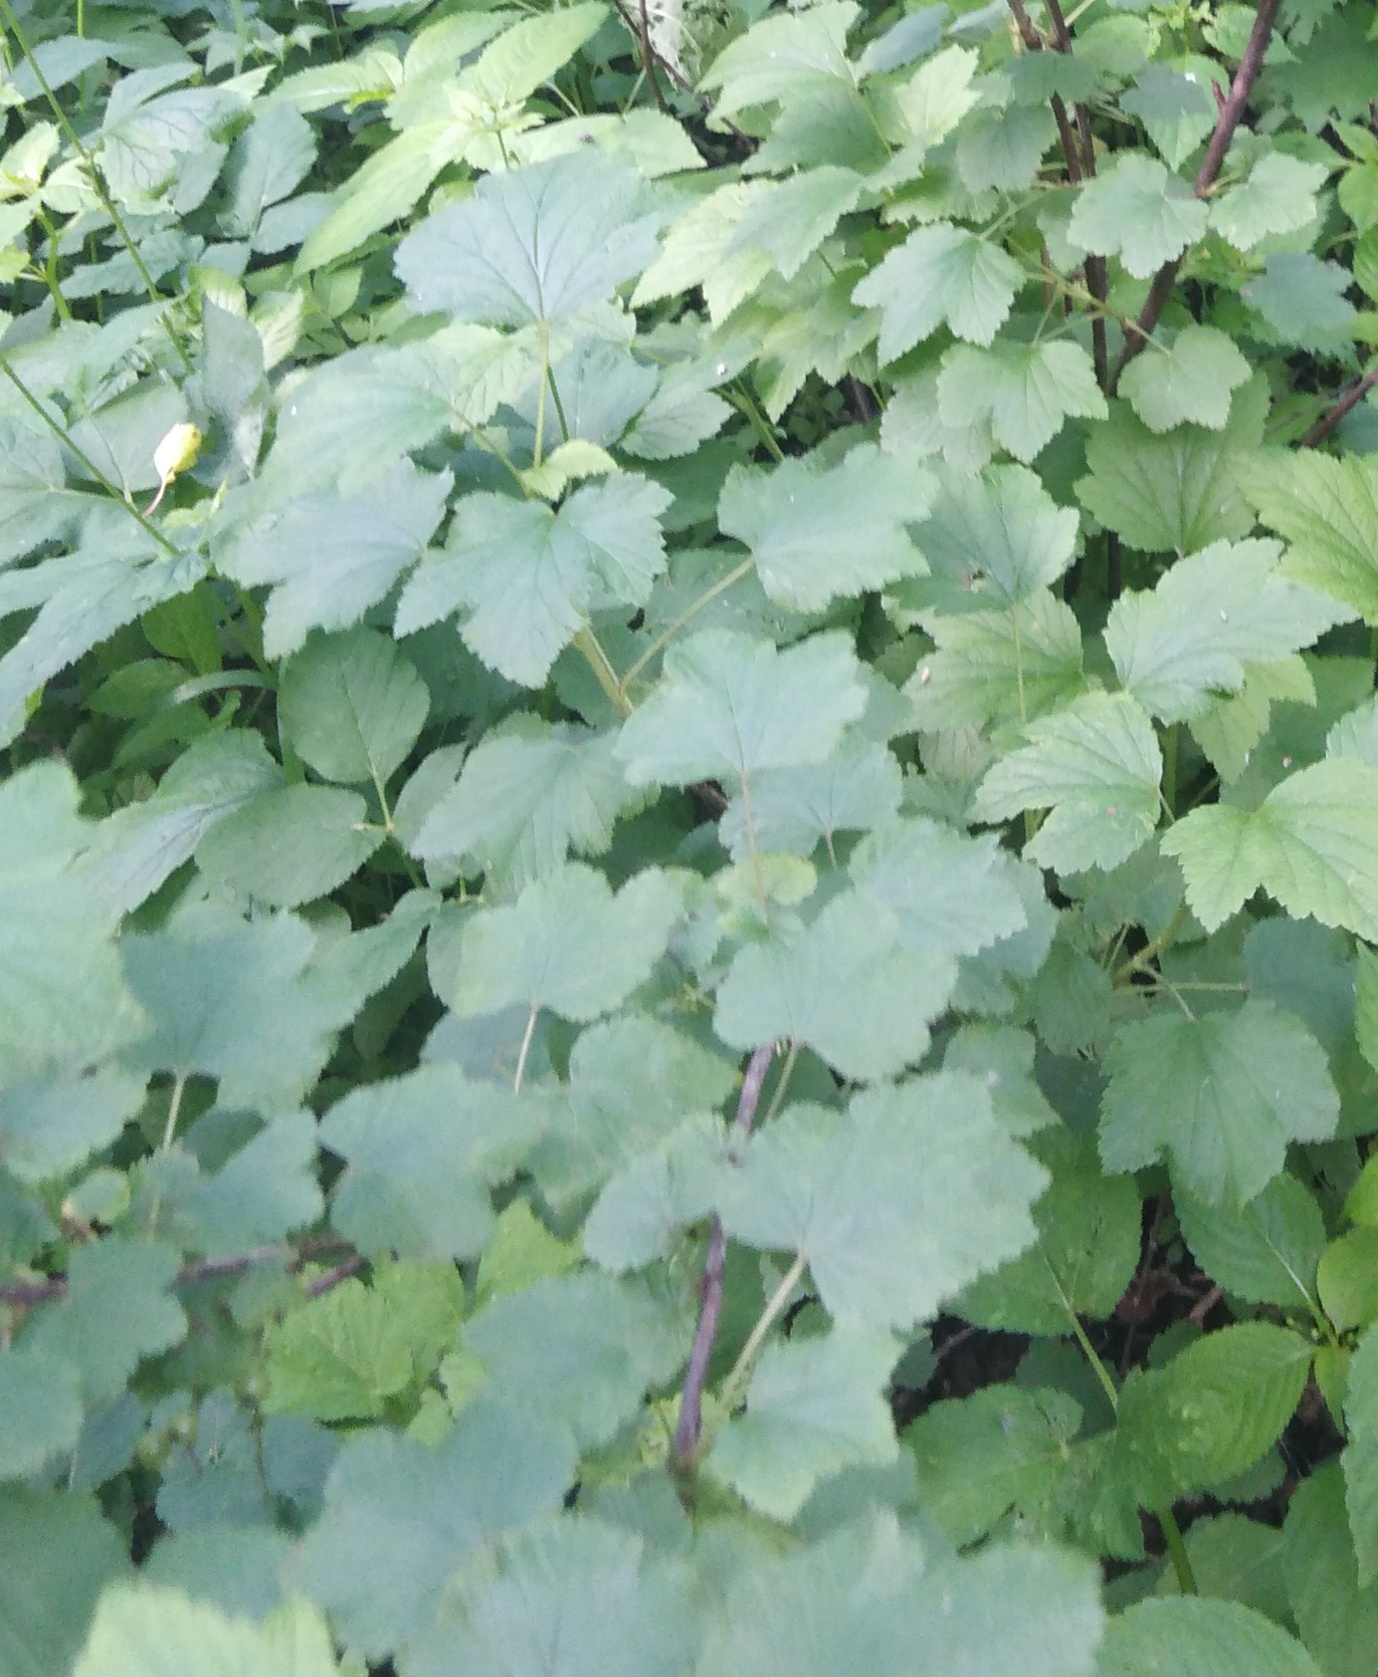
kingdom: Plantae
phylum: Tracheophyta
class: Magnoliopsida
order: Saxifragales
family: Grossulariaceae
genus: Ribes
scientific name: Ribes nigrum
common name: Black currant
